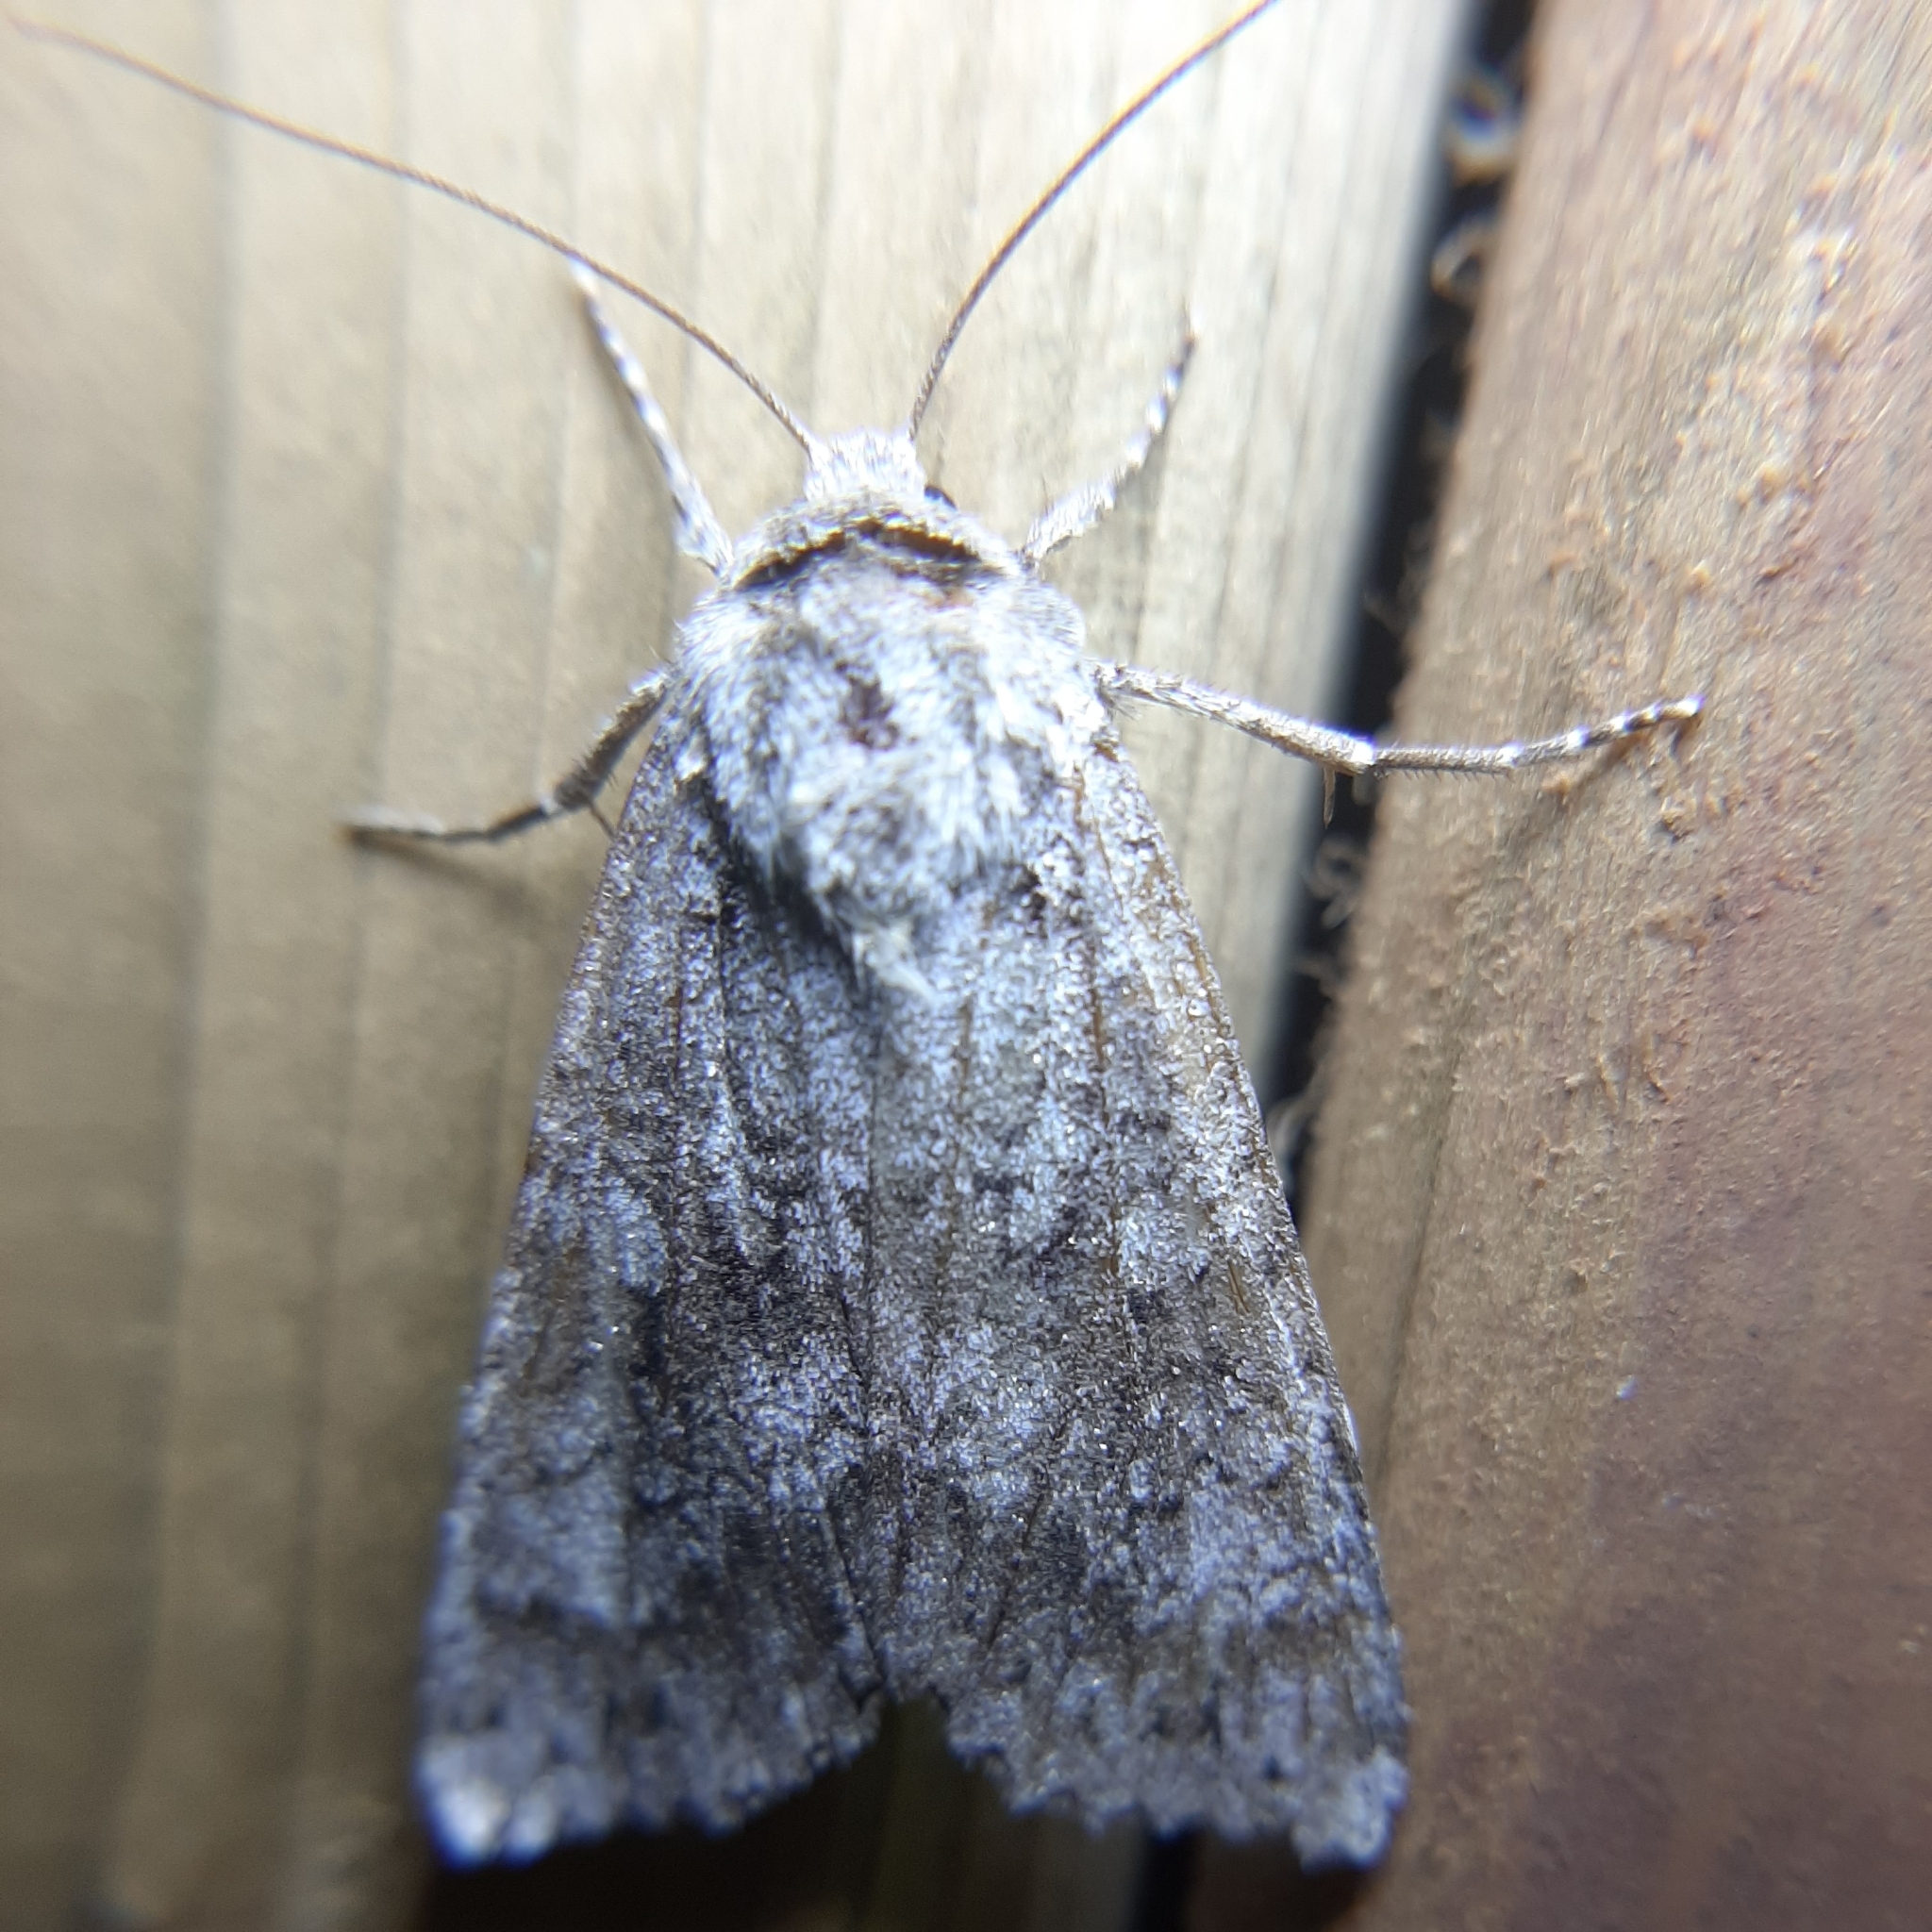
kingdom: Animalia
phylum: Arthropoda
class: Insecta
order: Lepidoptera
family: Noctuidae
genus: Eurois
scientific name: Eurois occulta
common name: Great brocade
